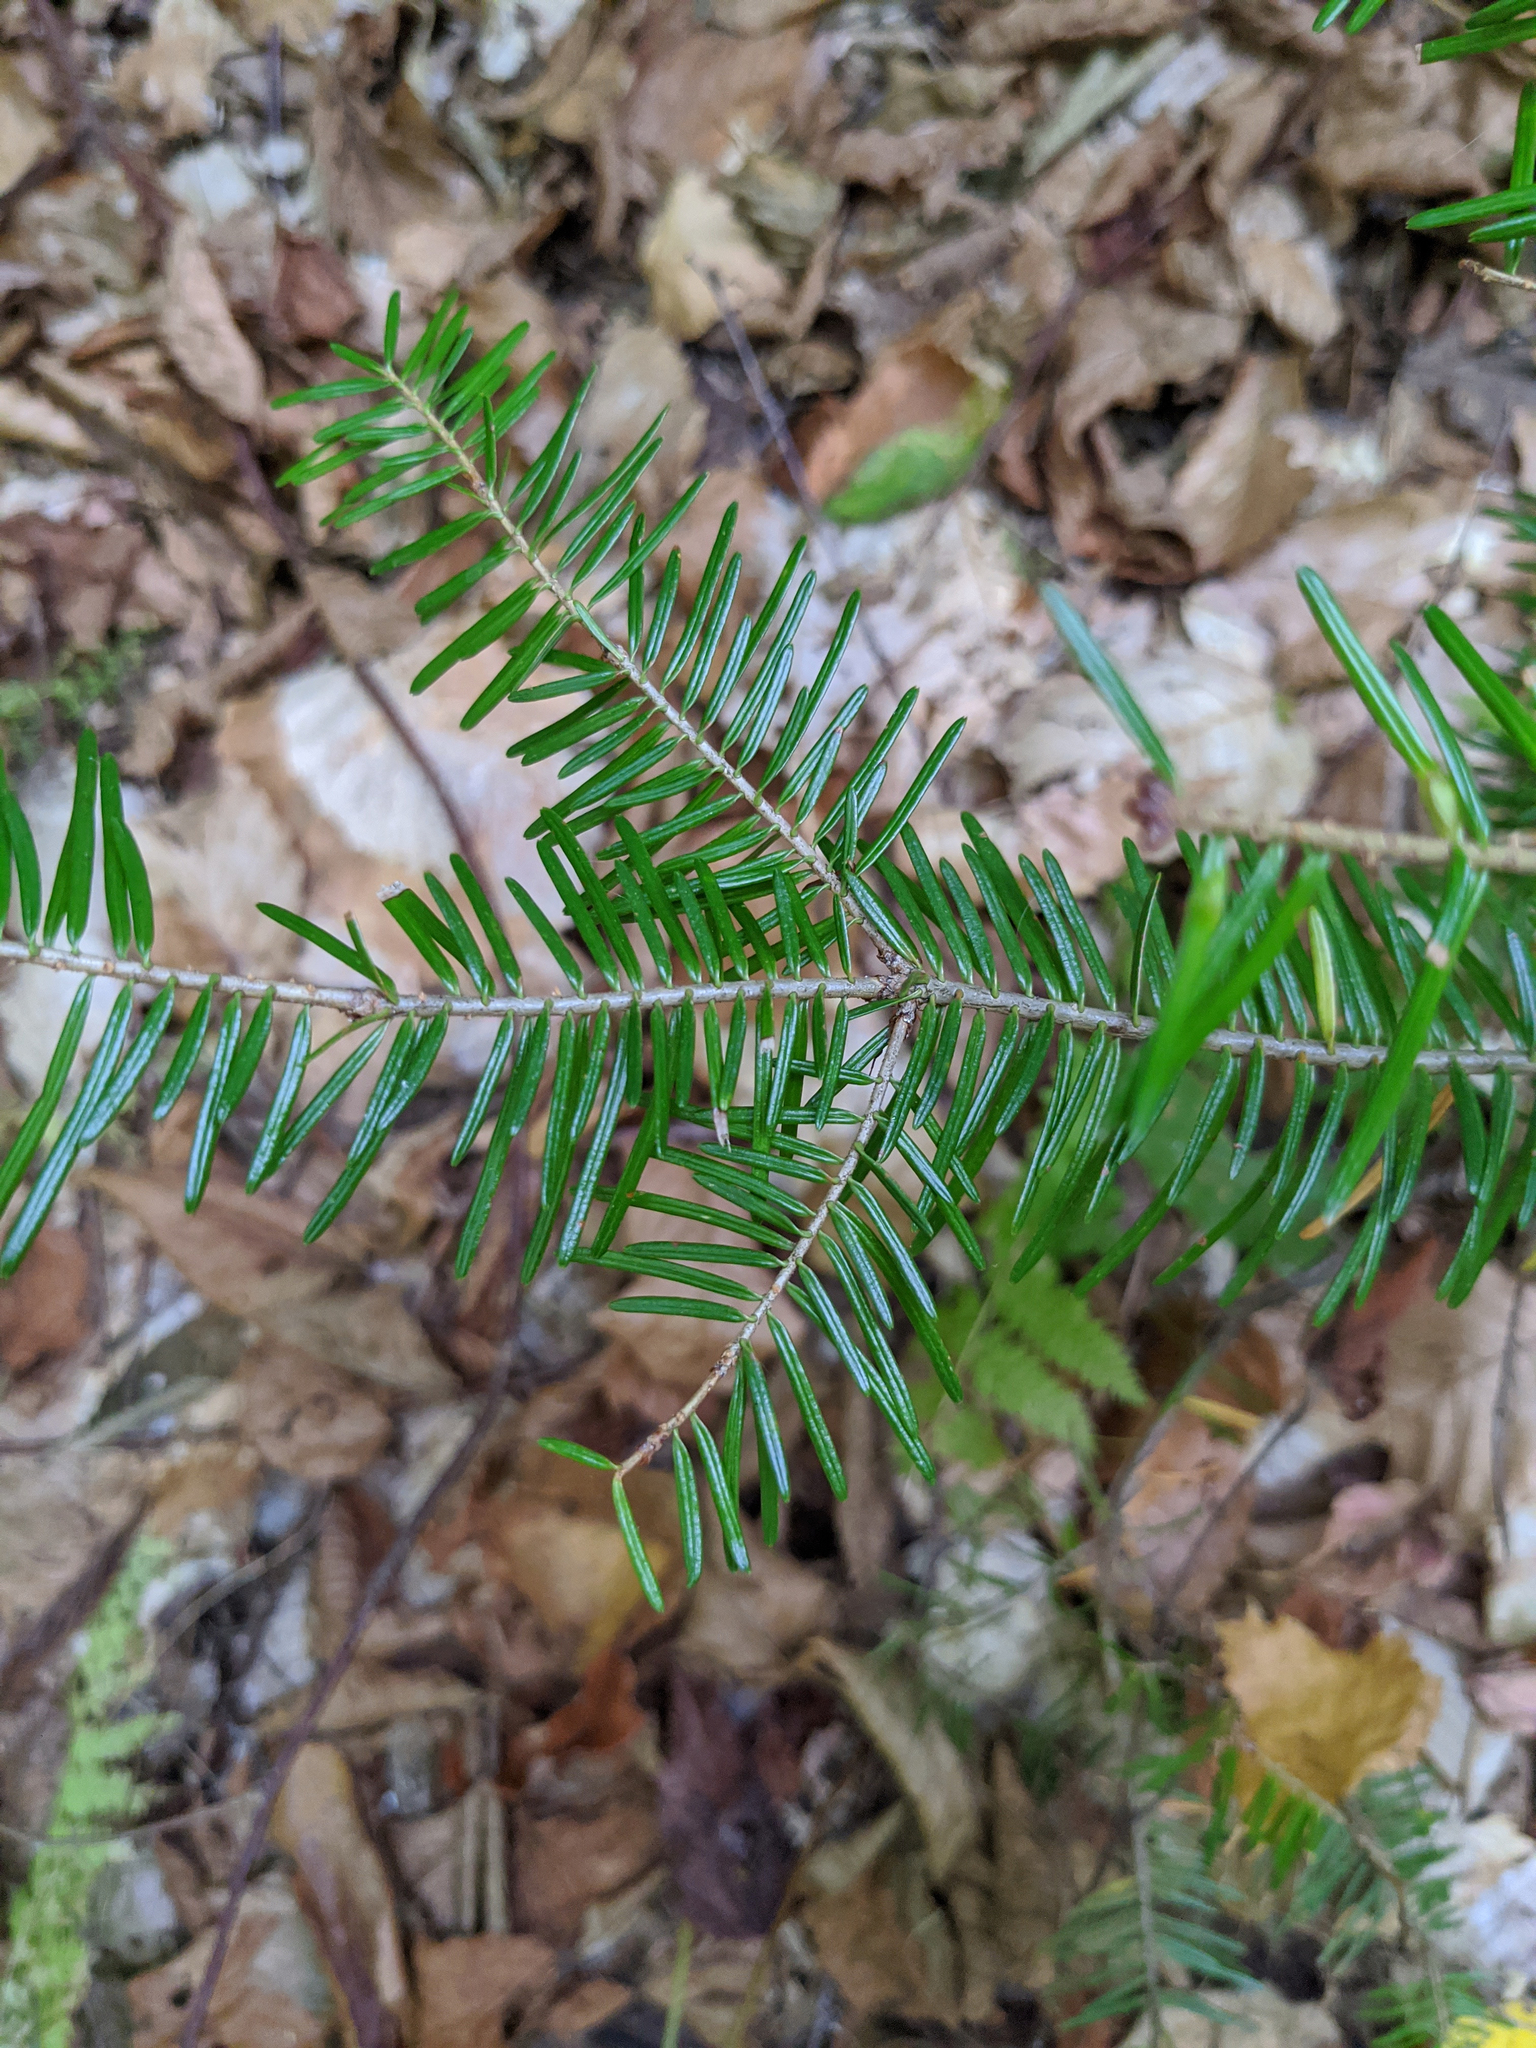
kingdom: Plantae
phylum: Tracheophyta
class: Pinopsida
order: Pinales
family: Pinaceae
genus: Abies
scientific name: Abies balsamea
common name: Balsam fir
